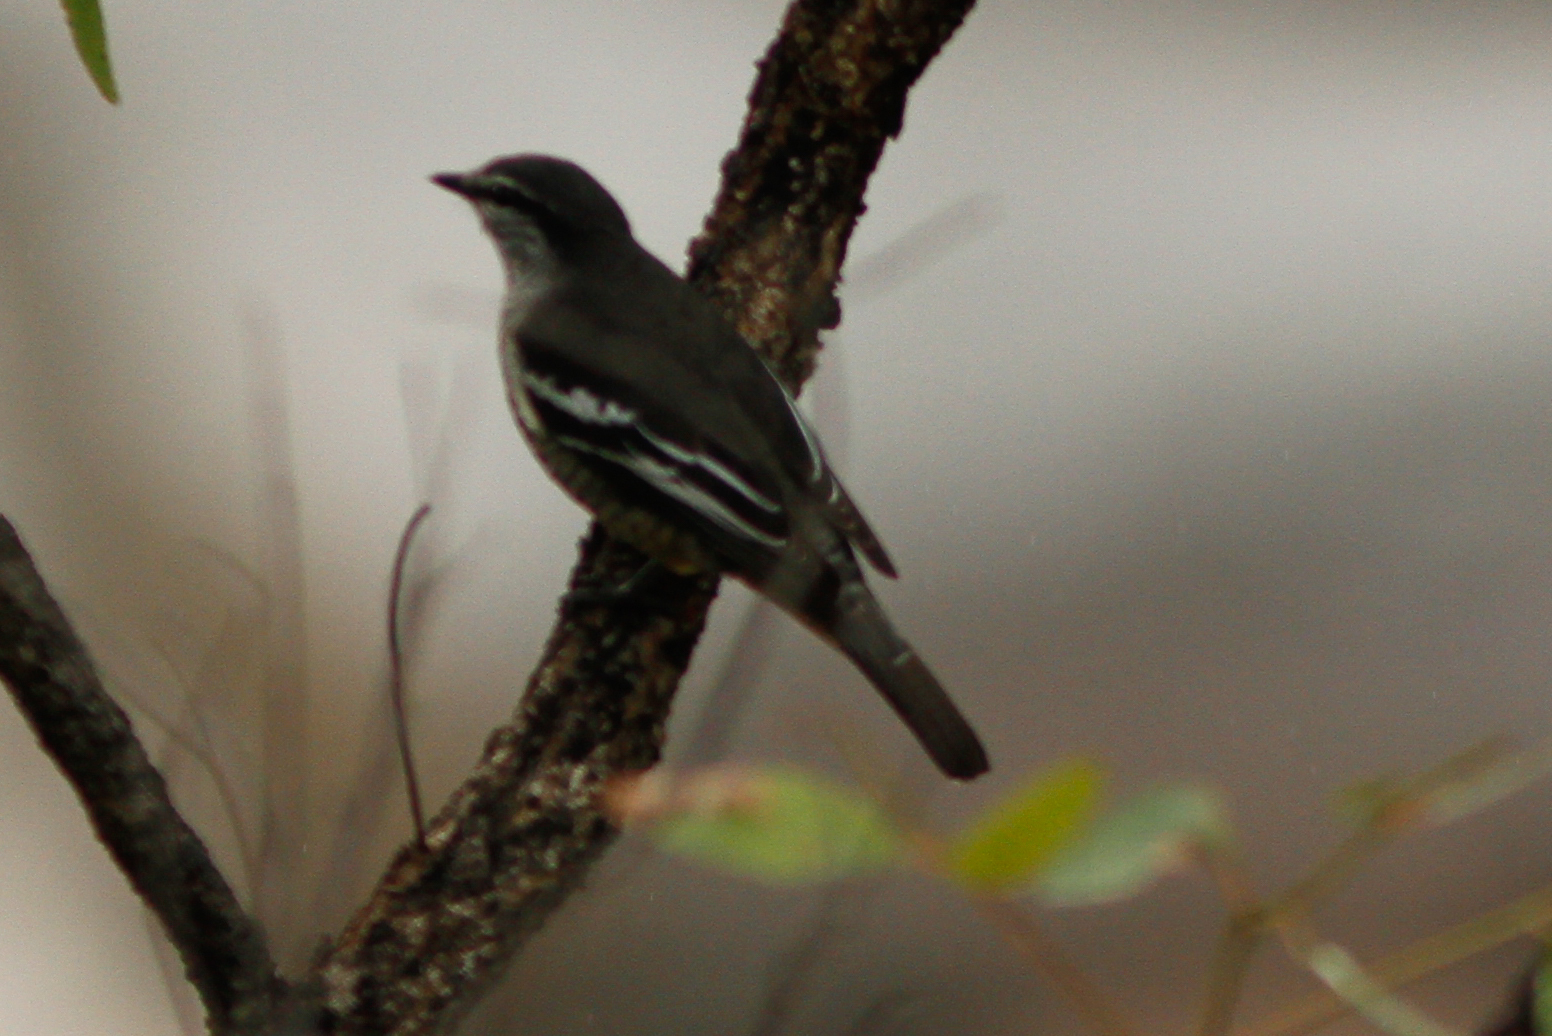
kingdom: Animalia
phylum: Chordata
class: Aves
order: Passeriformes
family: Campephagidae
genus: Lalage
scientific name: Lalage leucomela
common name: Varied triller
